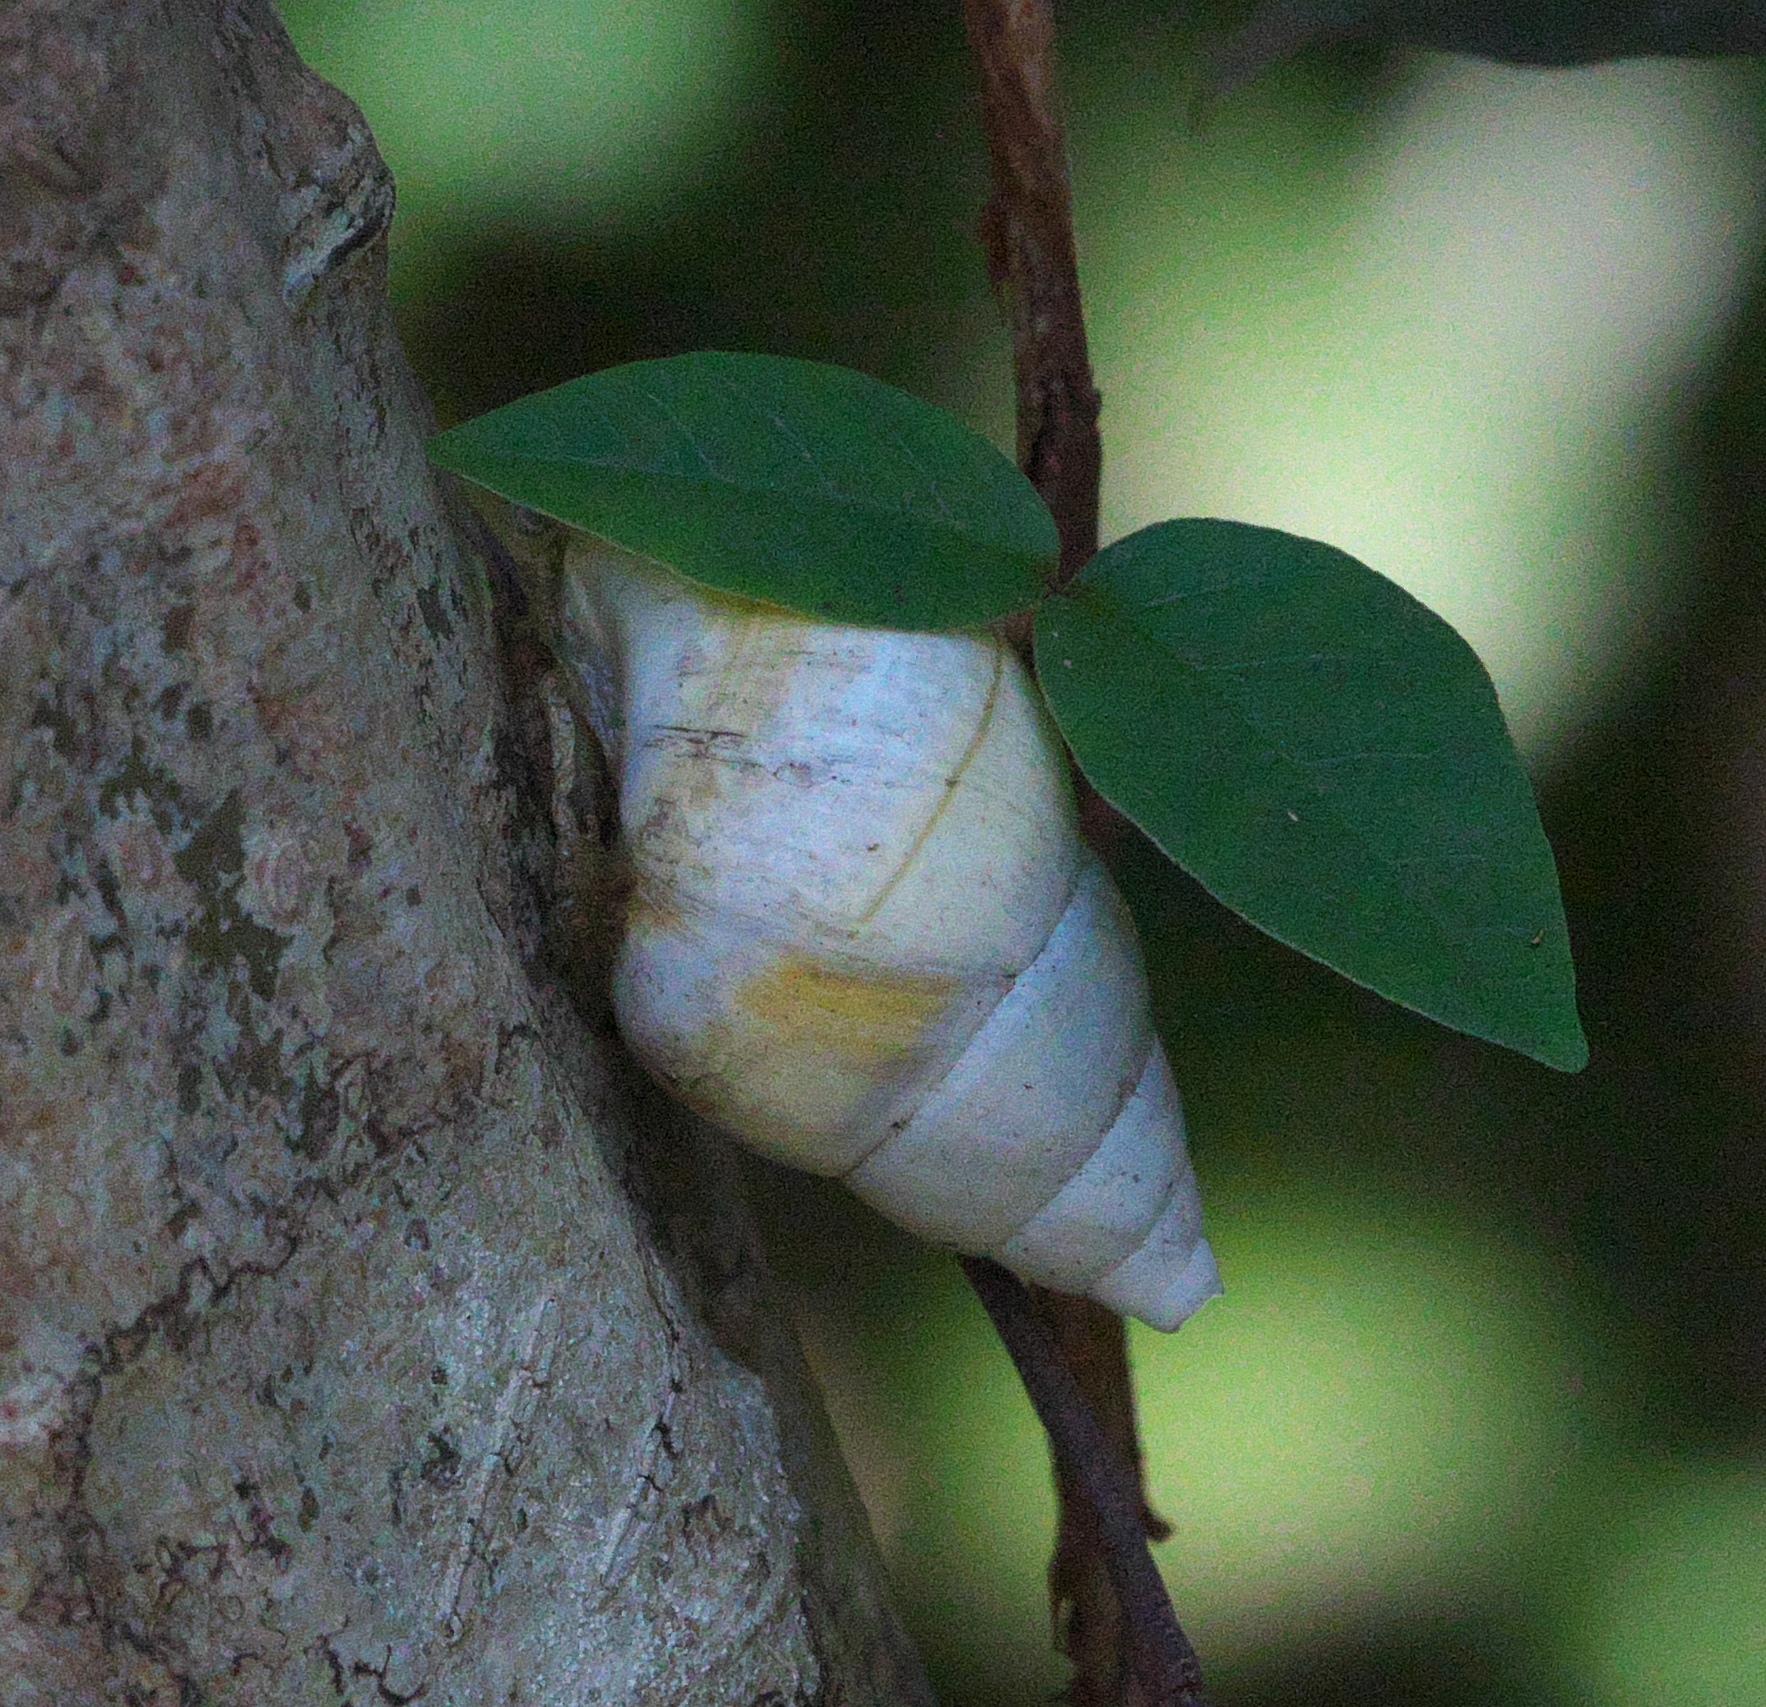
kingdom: Animalia
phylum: Mollusca
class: Gastropoda
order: Stylommatophora
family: Orthalicidae
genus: Liguus
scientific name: Liguus fasciatus
